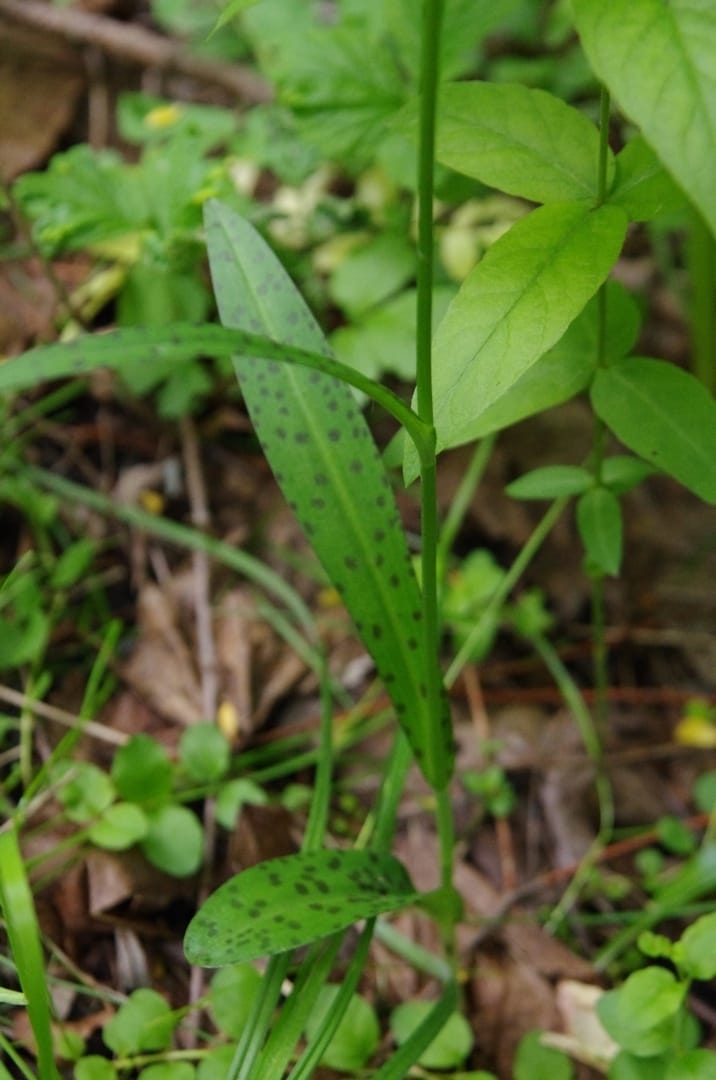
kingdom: Plantae
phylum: Tracheophyta
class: Liliopsida
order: Asparagales
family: Orchidaceae
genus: Dactylorhiza
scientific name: Dactylorhiza maculata
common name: Heath spotted-orchid
